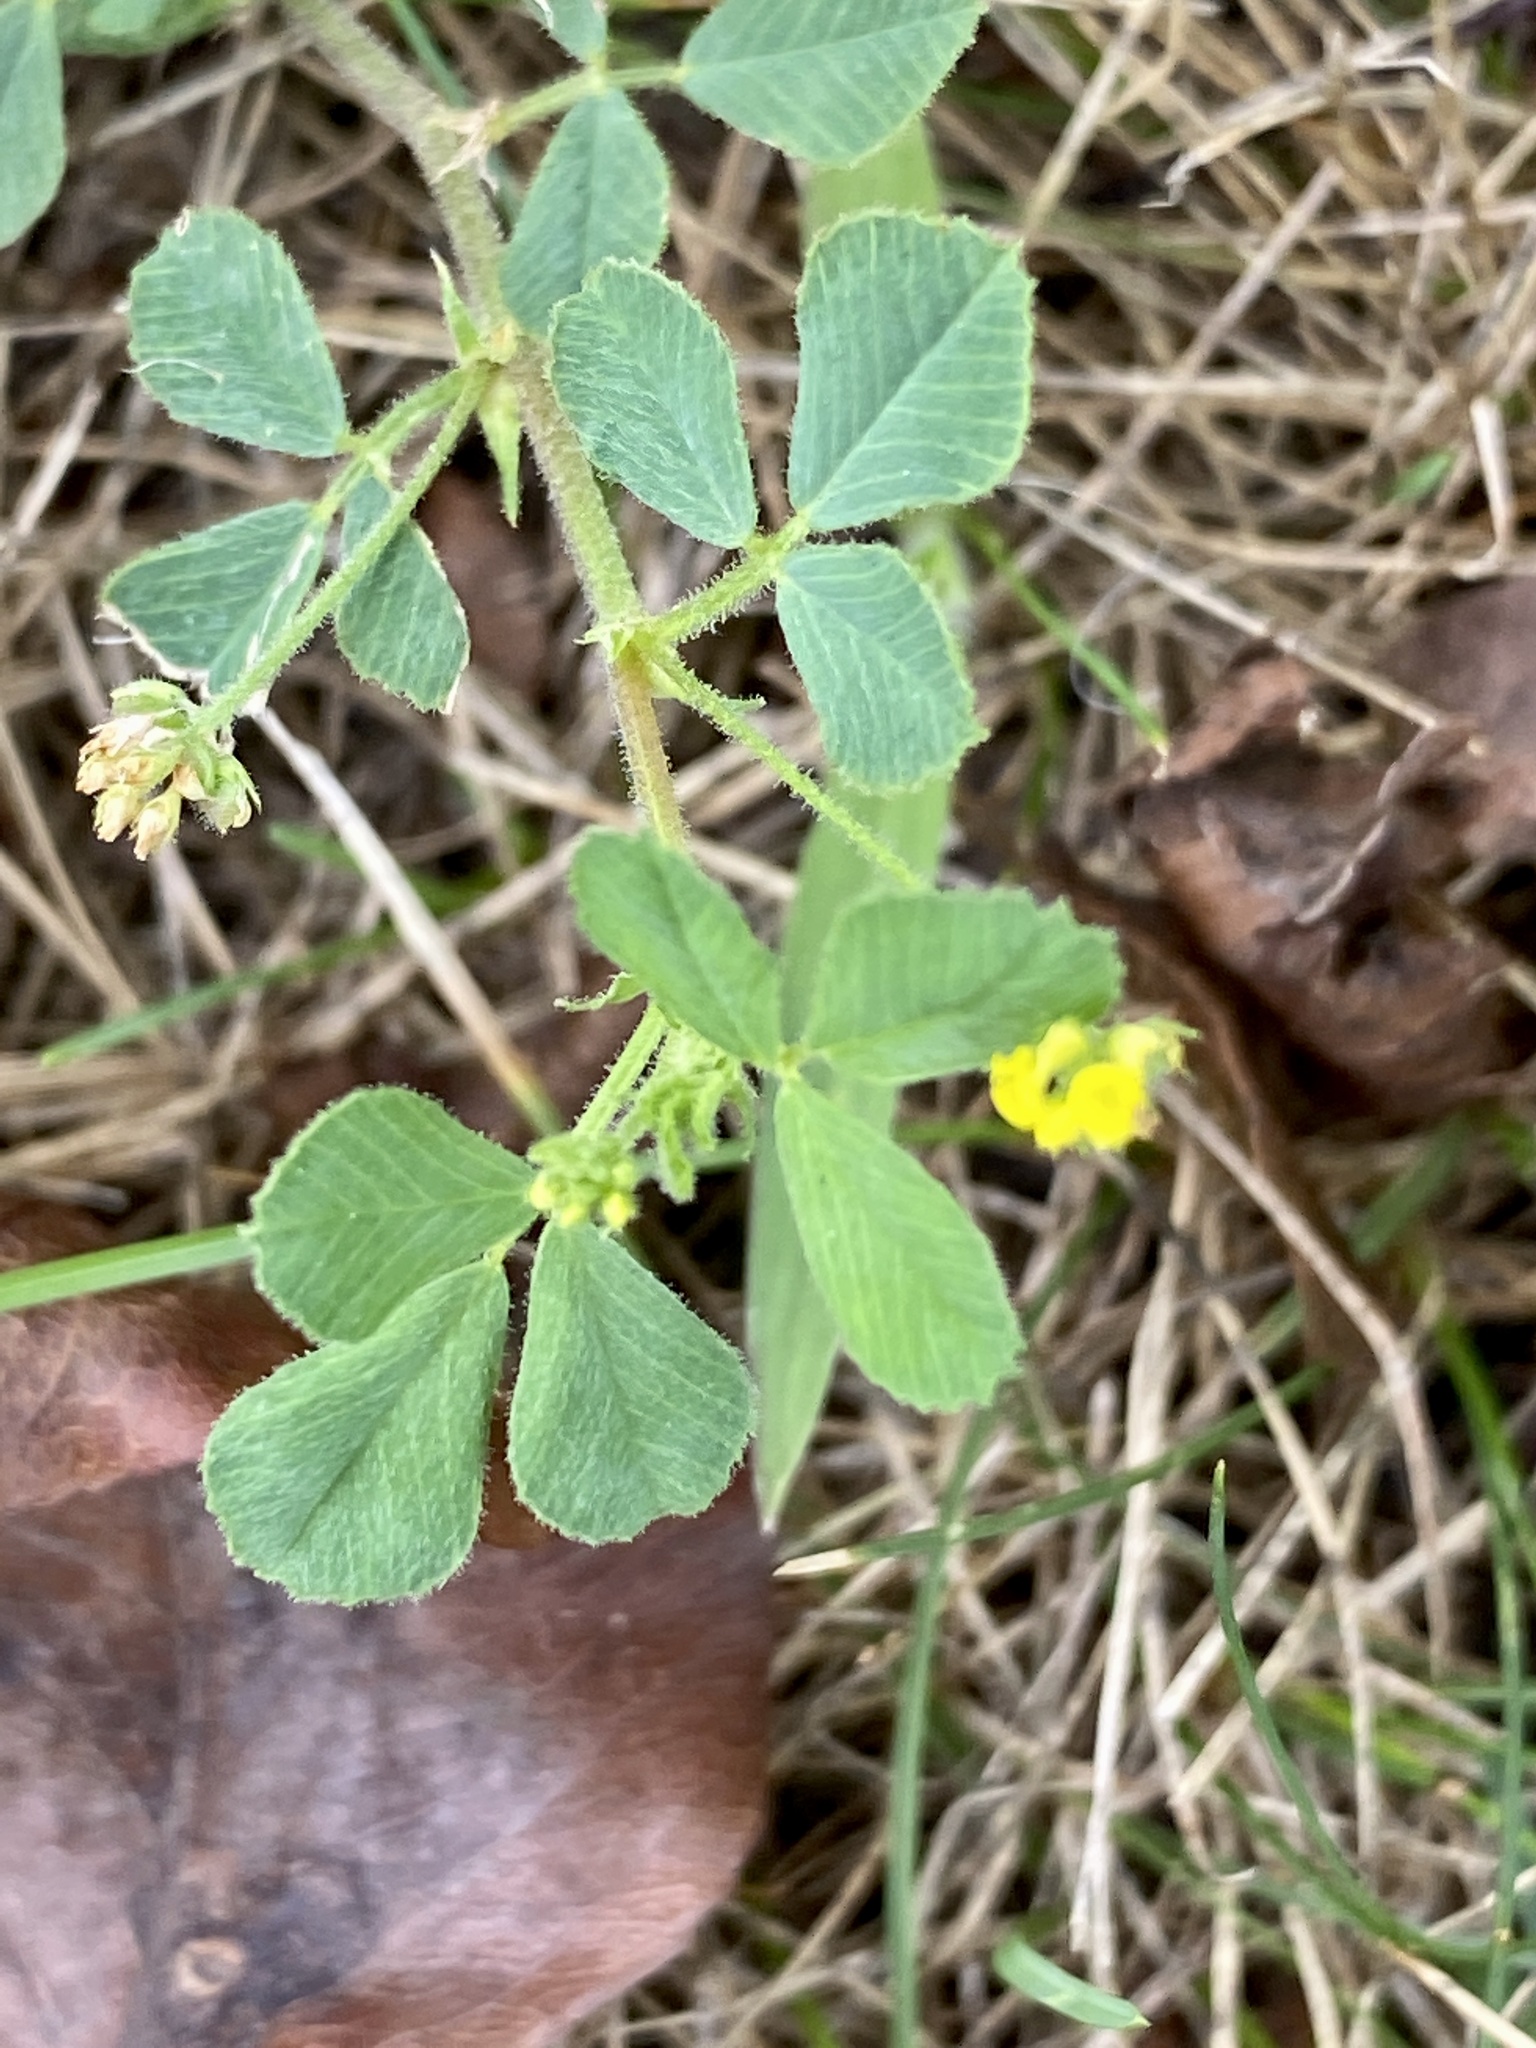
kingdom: Plantae
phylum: Tracheophyta
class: Magnoliopsida
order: Fabales
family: Fabaceae
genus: Medicago
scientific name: Medicago lupulina
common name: Black medick
